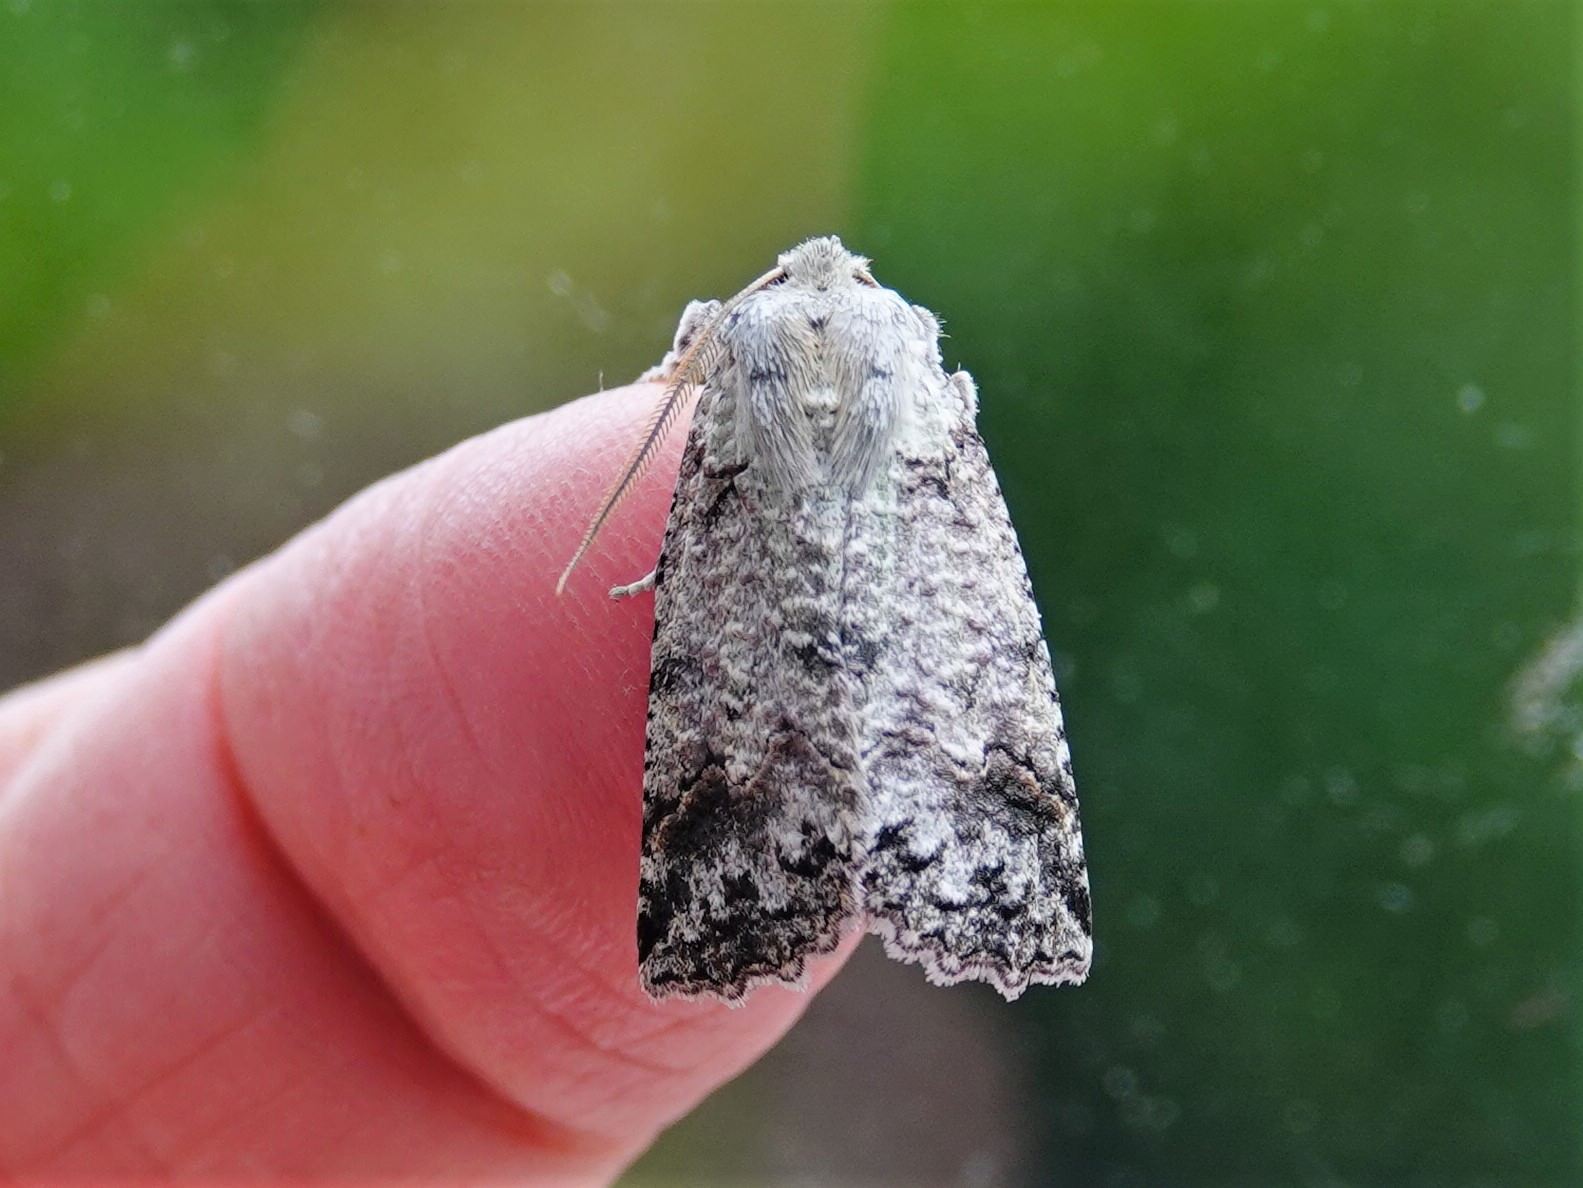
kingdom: Animalia
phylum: Arthropoda
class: Insecta
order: Lepidoptera
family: Geometridae
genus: Declana
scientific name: Declana floccosa
